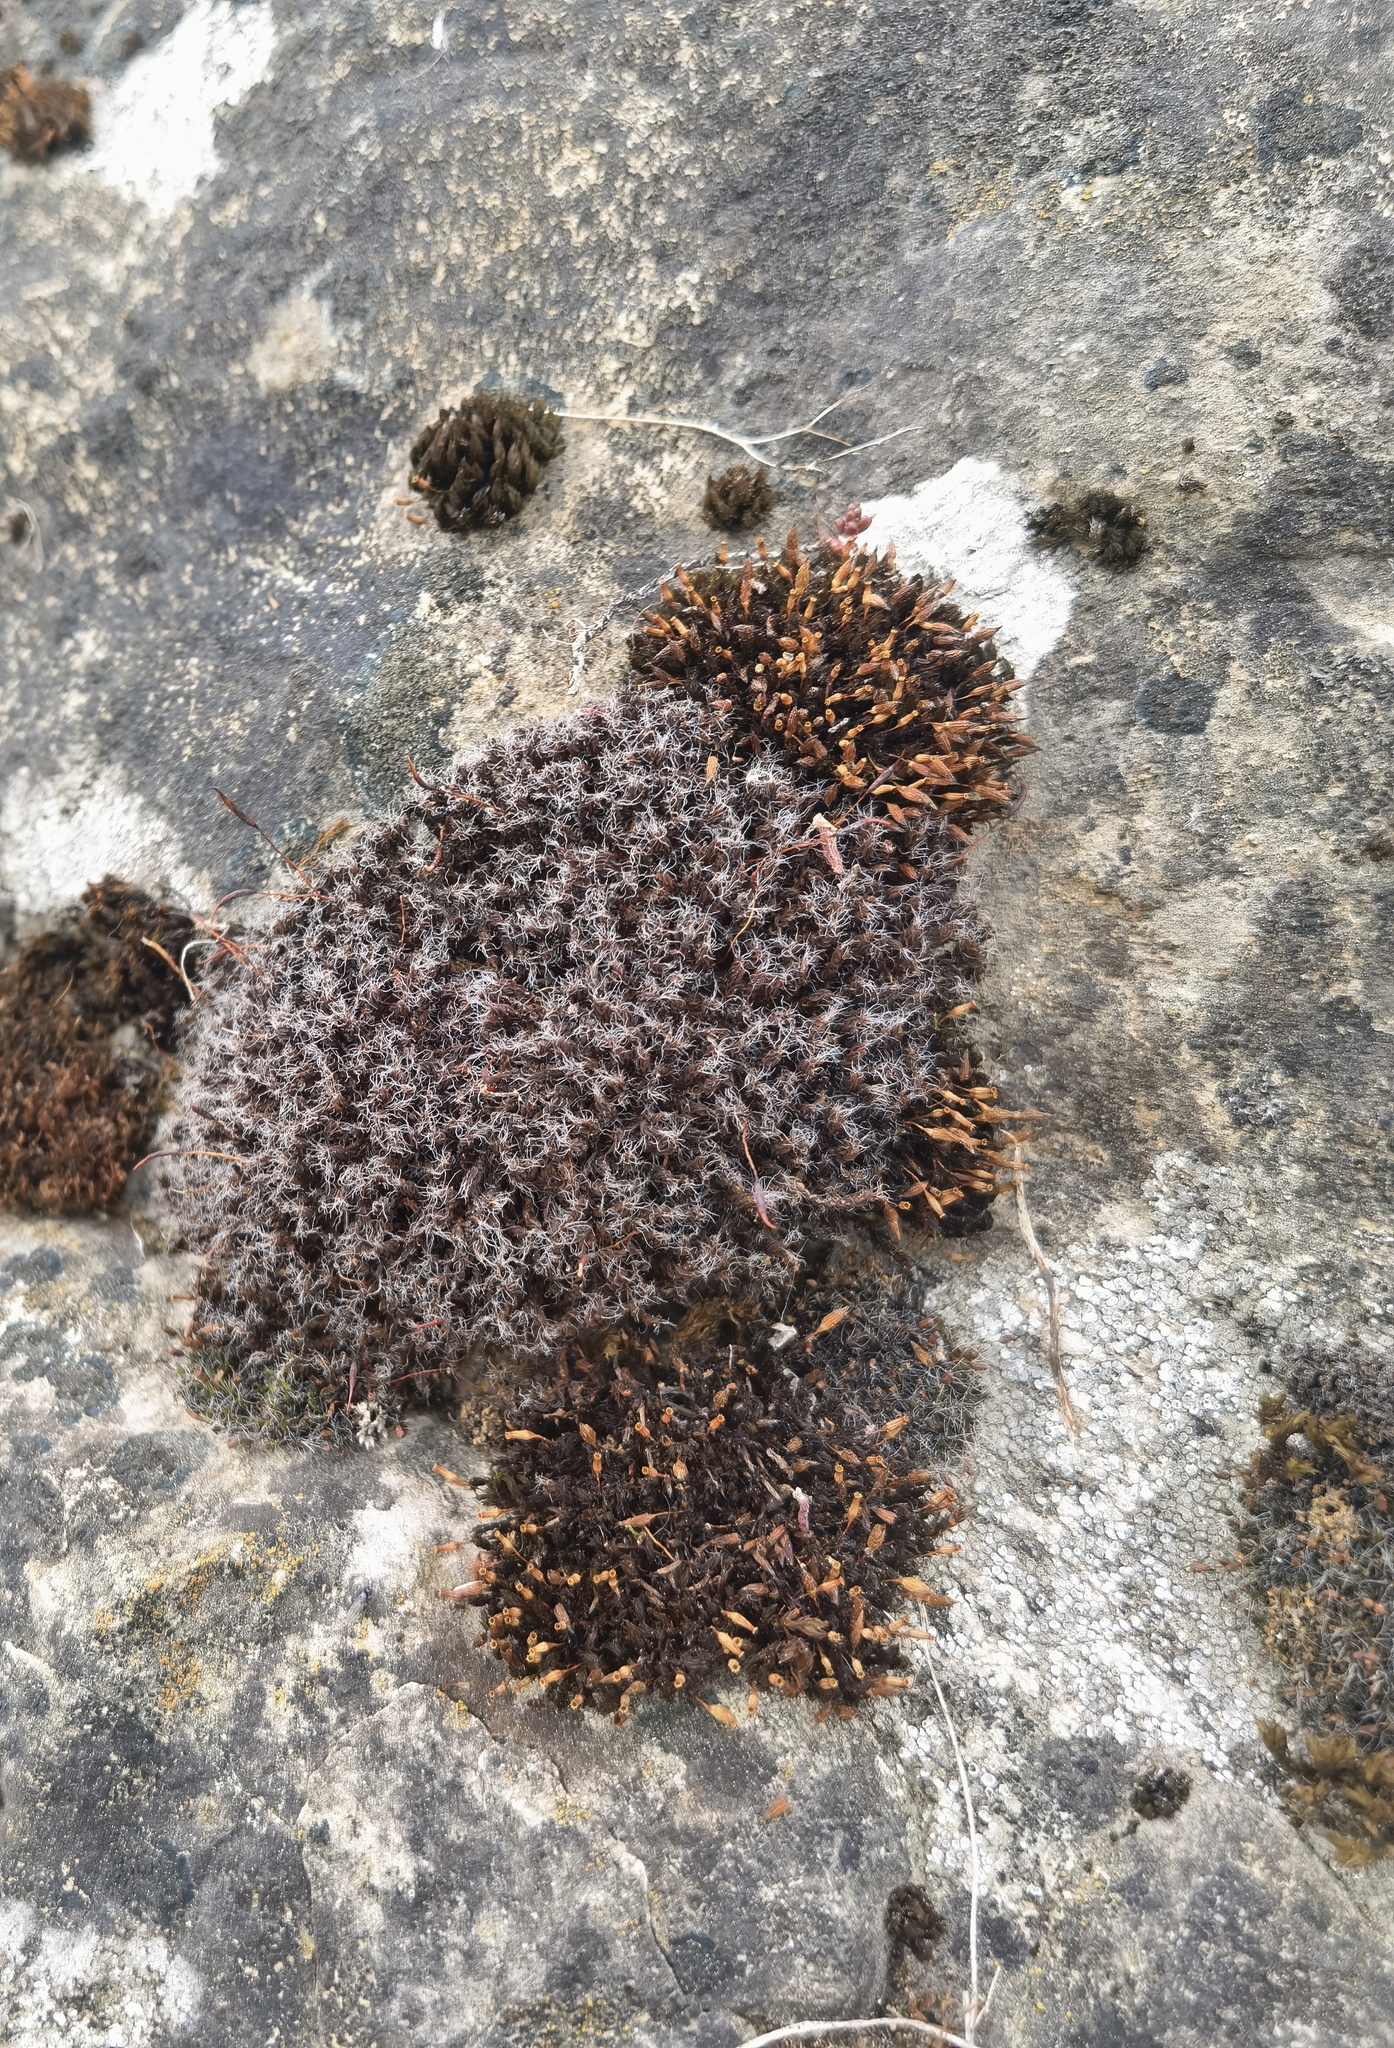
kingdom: Plantae
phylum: Bryophyta
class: Bryopsida
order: Grimmiales
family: Grimmiaceae
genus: Grimmia
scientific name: Grimmia pulvinata
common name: Grey-cushioned grimmia
